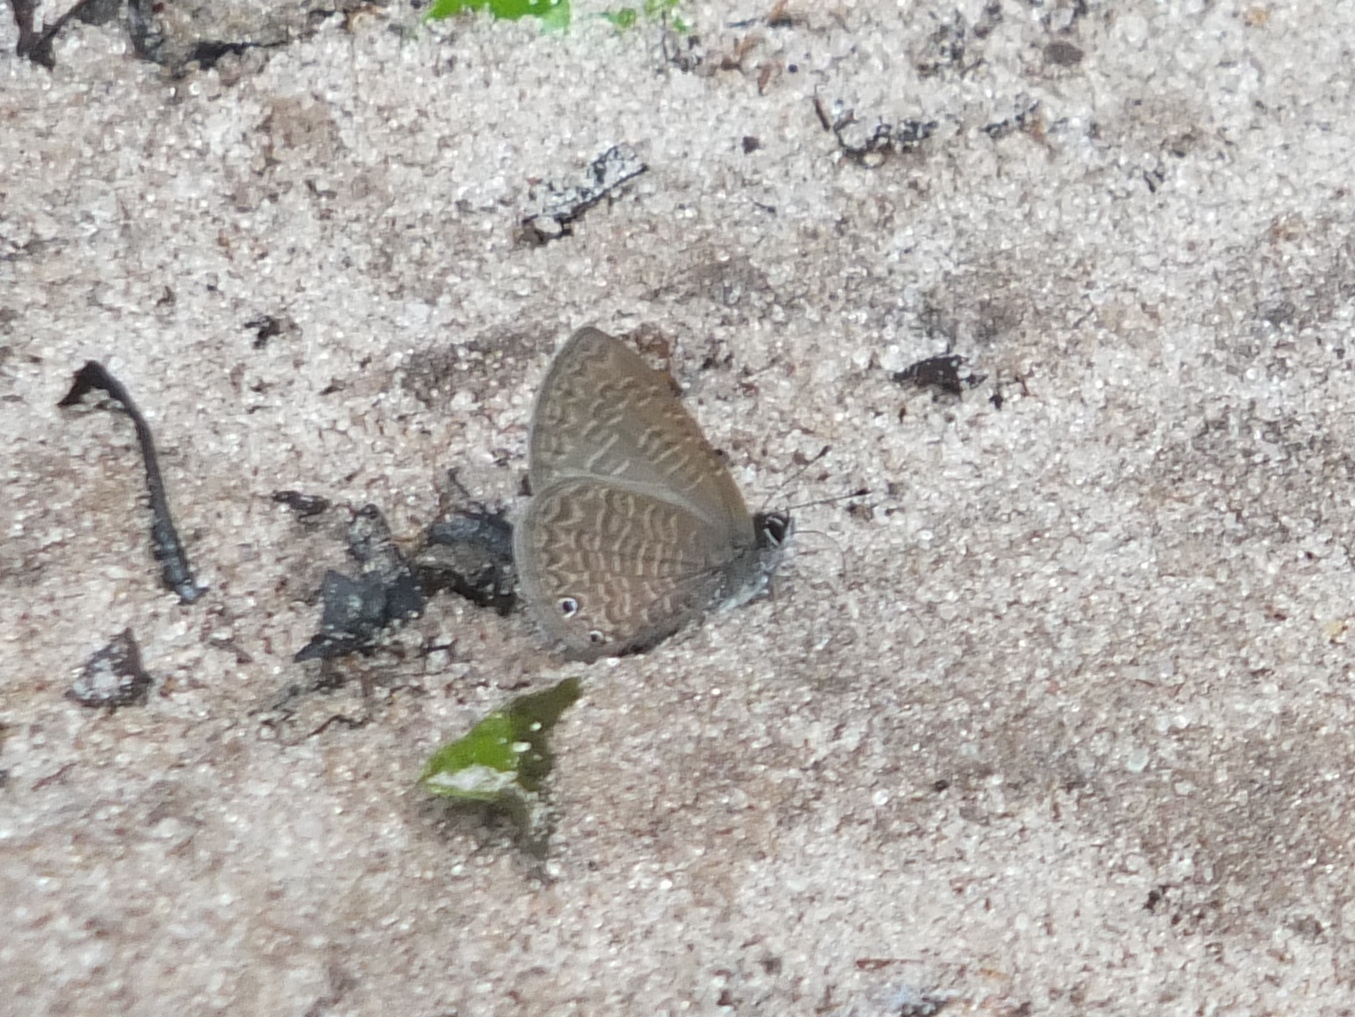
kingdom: Animalia
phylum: Arthropoda
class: Insecta
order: Lepidoptera
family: Lycaenidae
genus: Pseudonacaduba
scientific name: Pseudonacaduba aethiops
